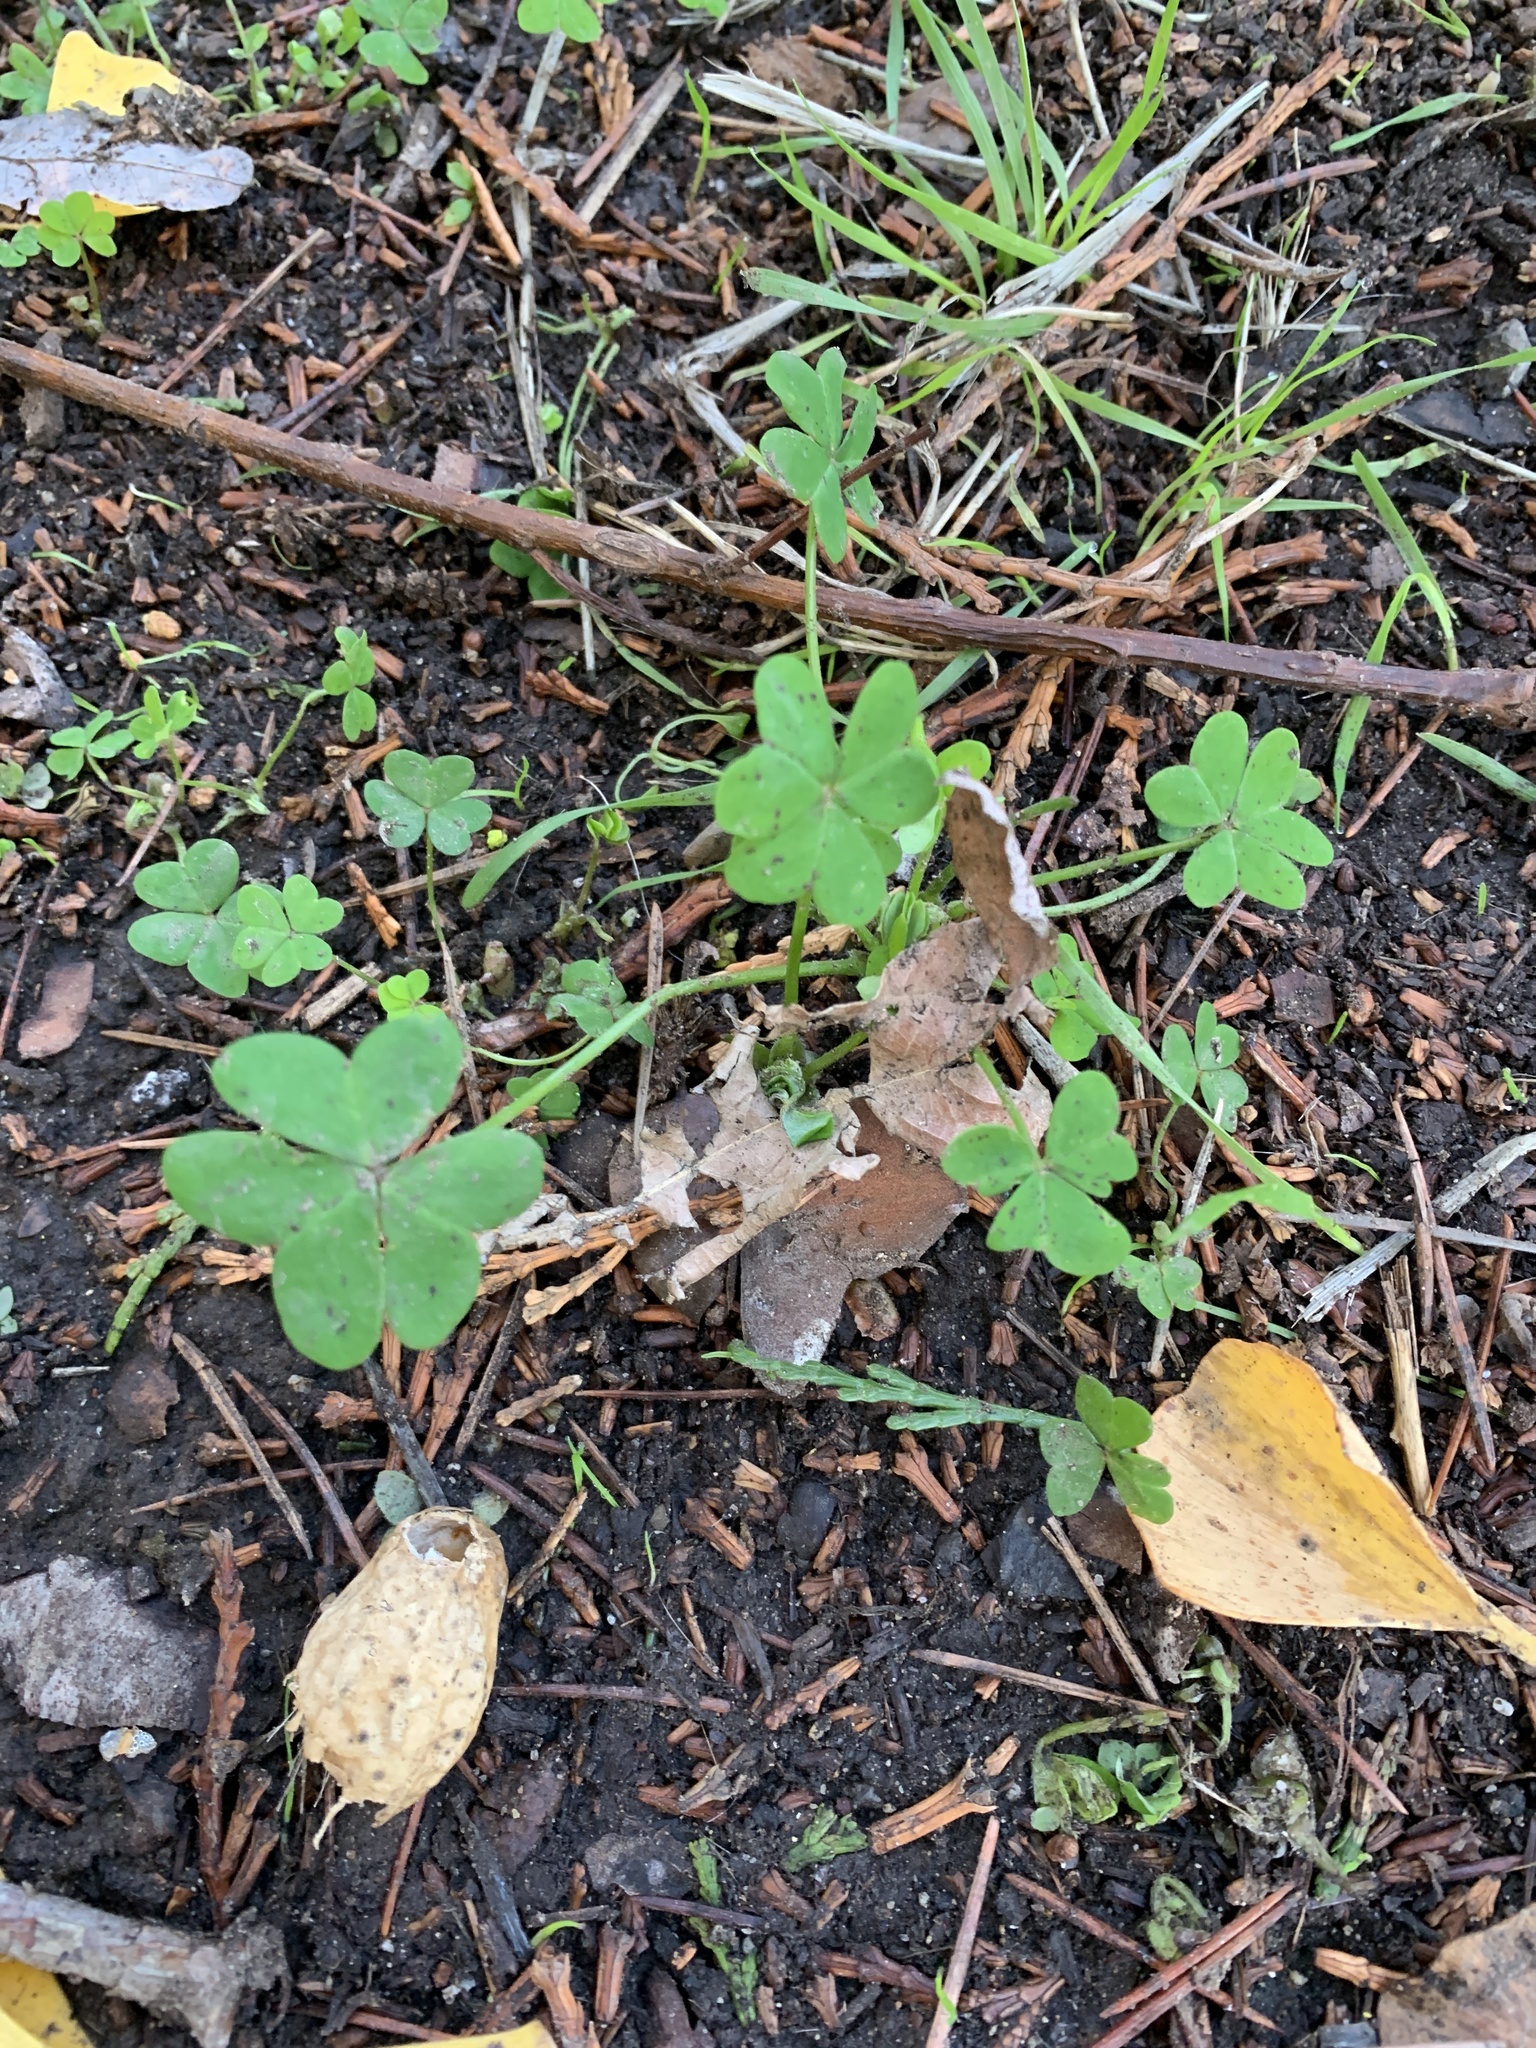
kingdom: Plantae
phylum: Tracheophyta
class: Magnoliopsida
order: Oxalidales
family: Oxalidaceae
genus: Oxalis
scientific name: Oxalis pes-caprae
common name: Bermuda-buttercup
